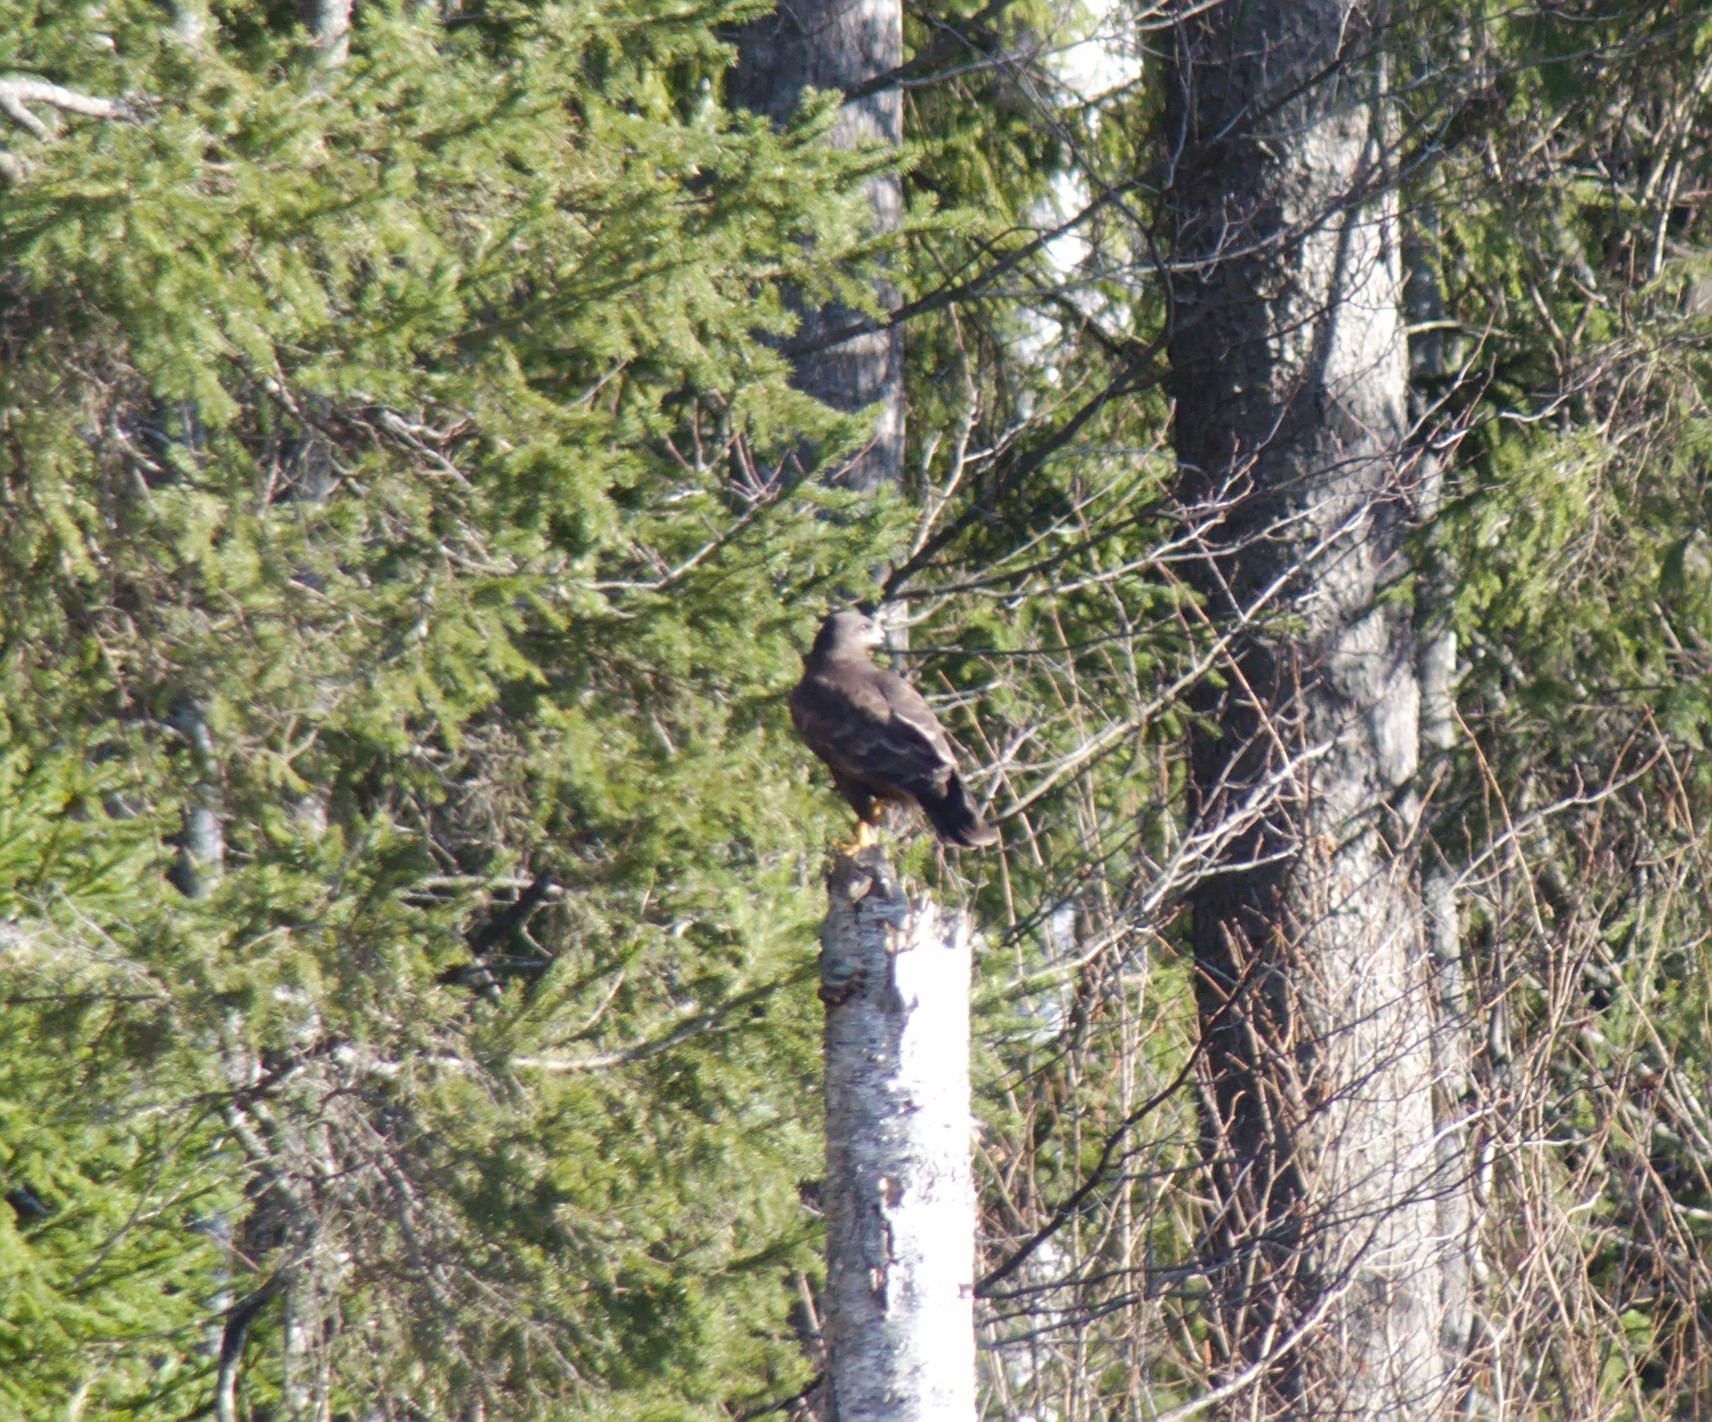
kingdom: Animalia
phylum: Chordata
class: Aves
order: Accipitriformes
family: Accipitridae
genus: Buteo
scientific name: Buteo buteo
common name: Common buzzard
